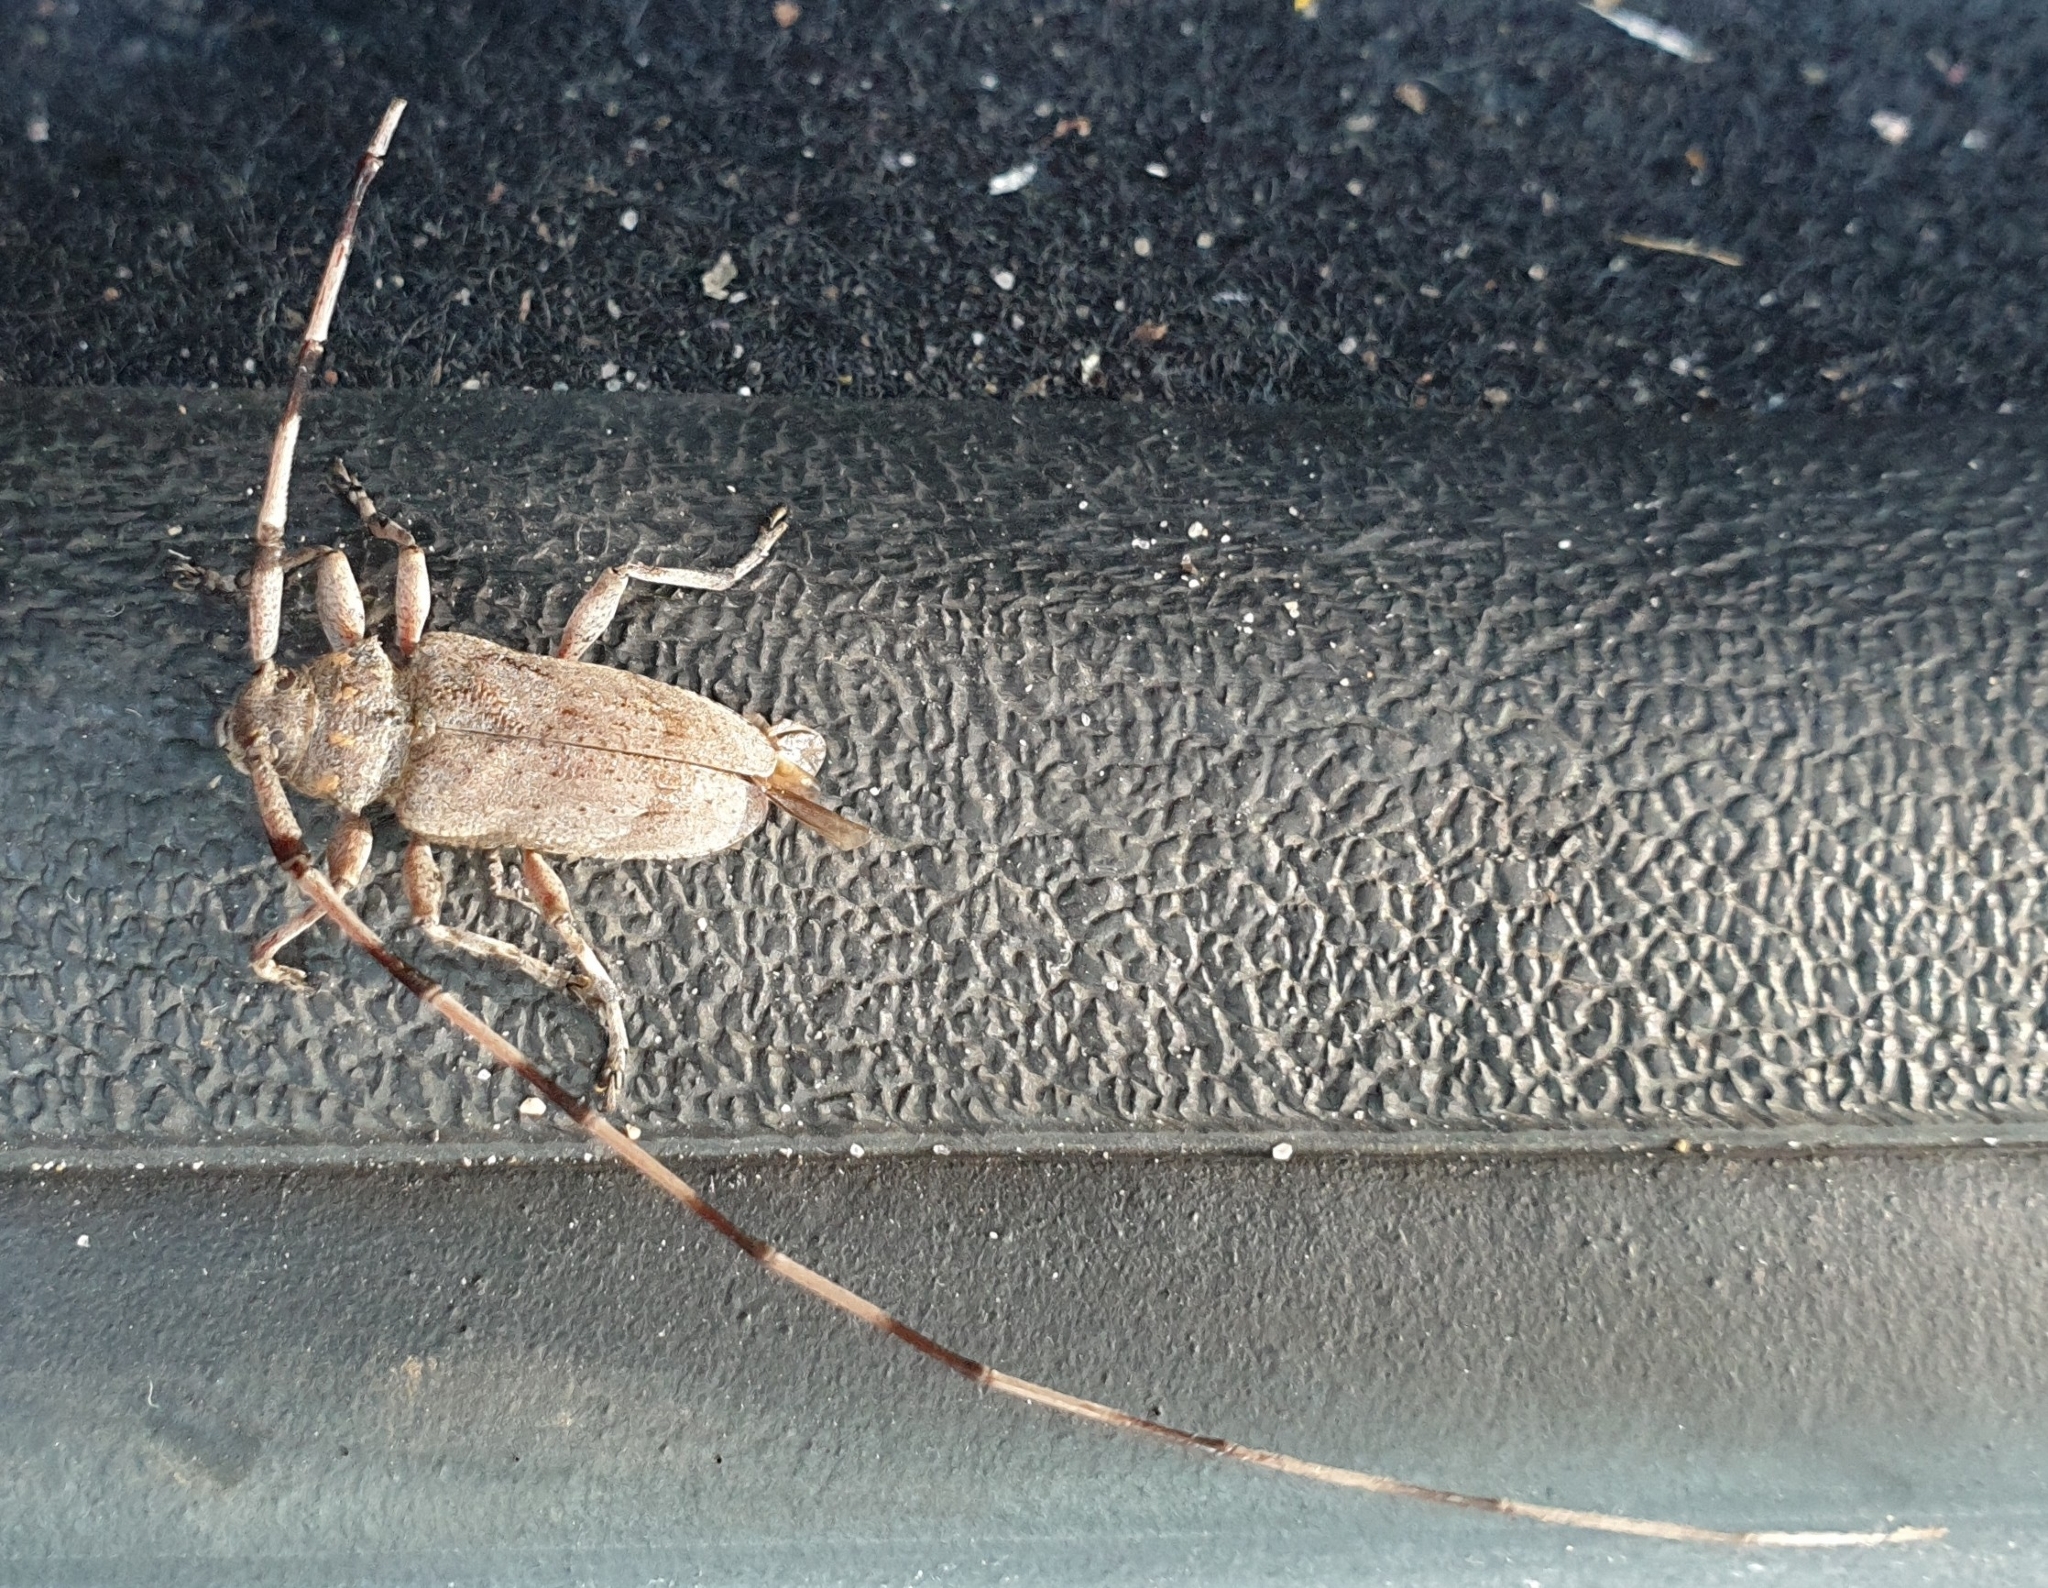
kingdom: Animalia
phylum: Arthropoda
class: Insecta
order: Coleoptera
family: Cerambycidae
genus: Acanthocinus
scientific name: Acanthocinus aedilis
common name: Timberman beetle
